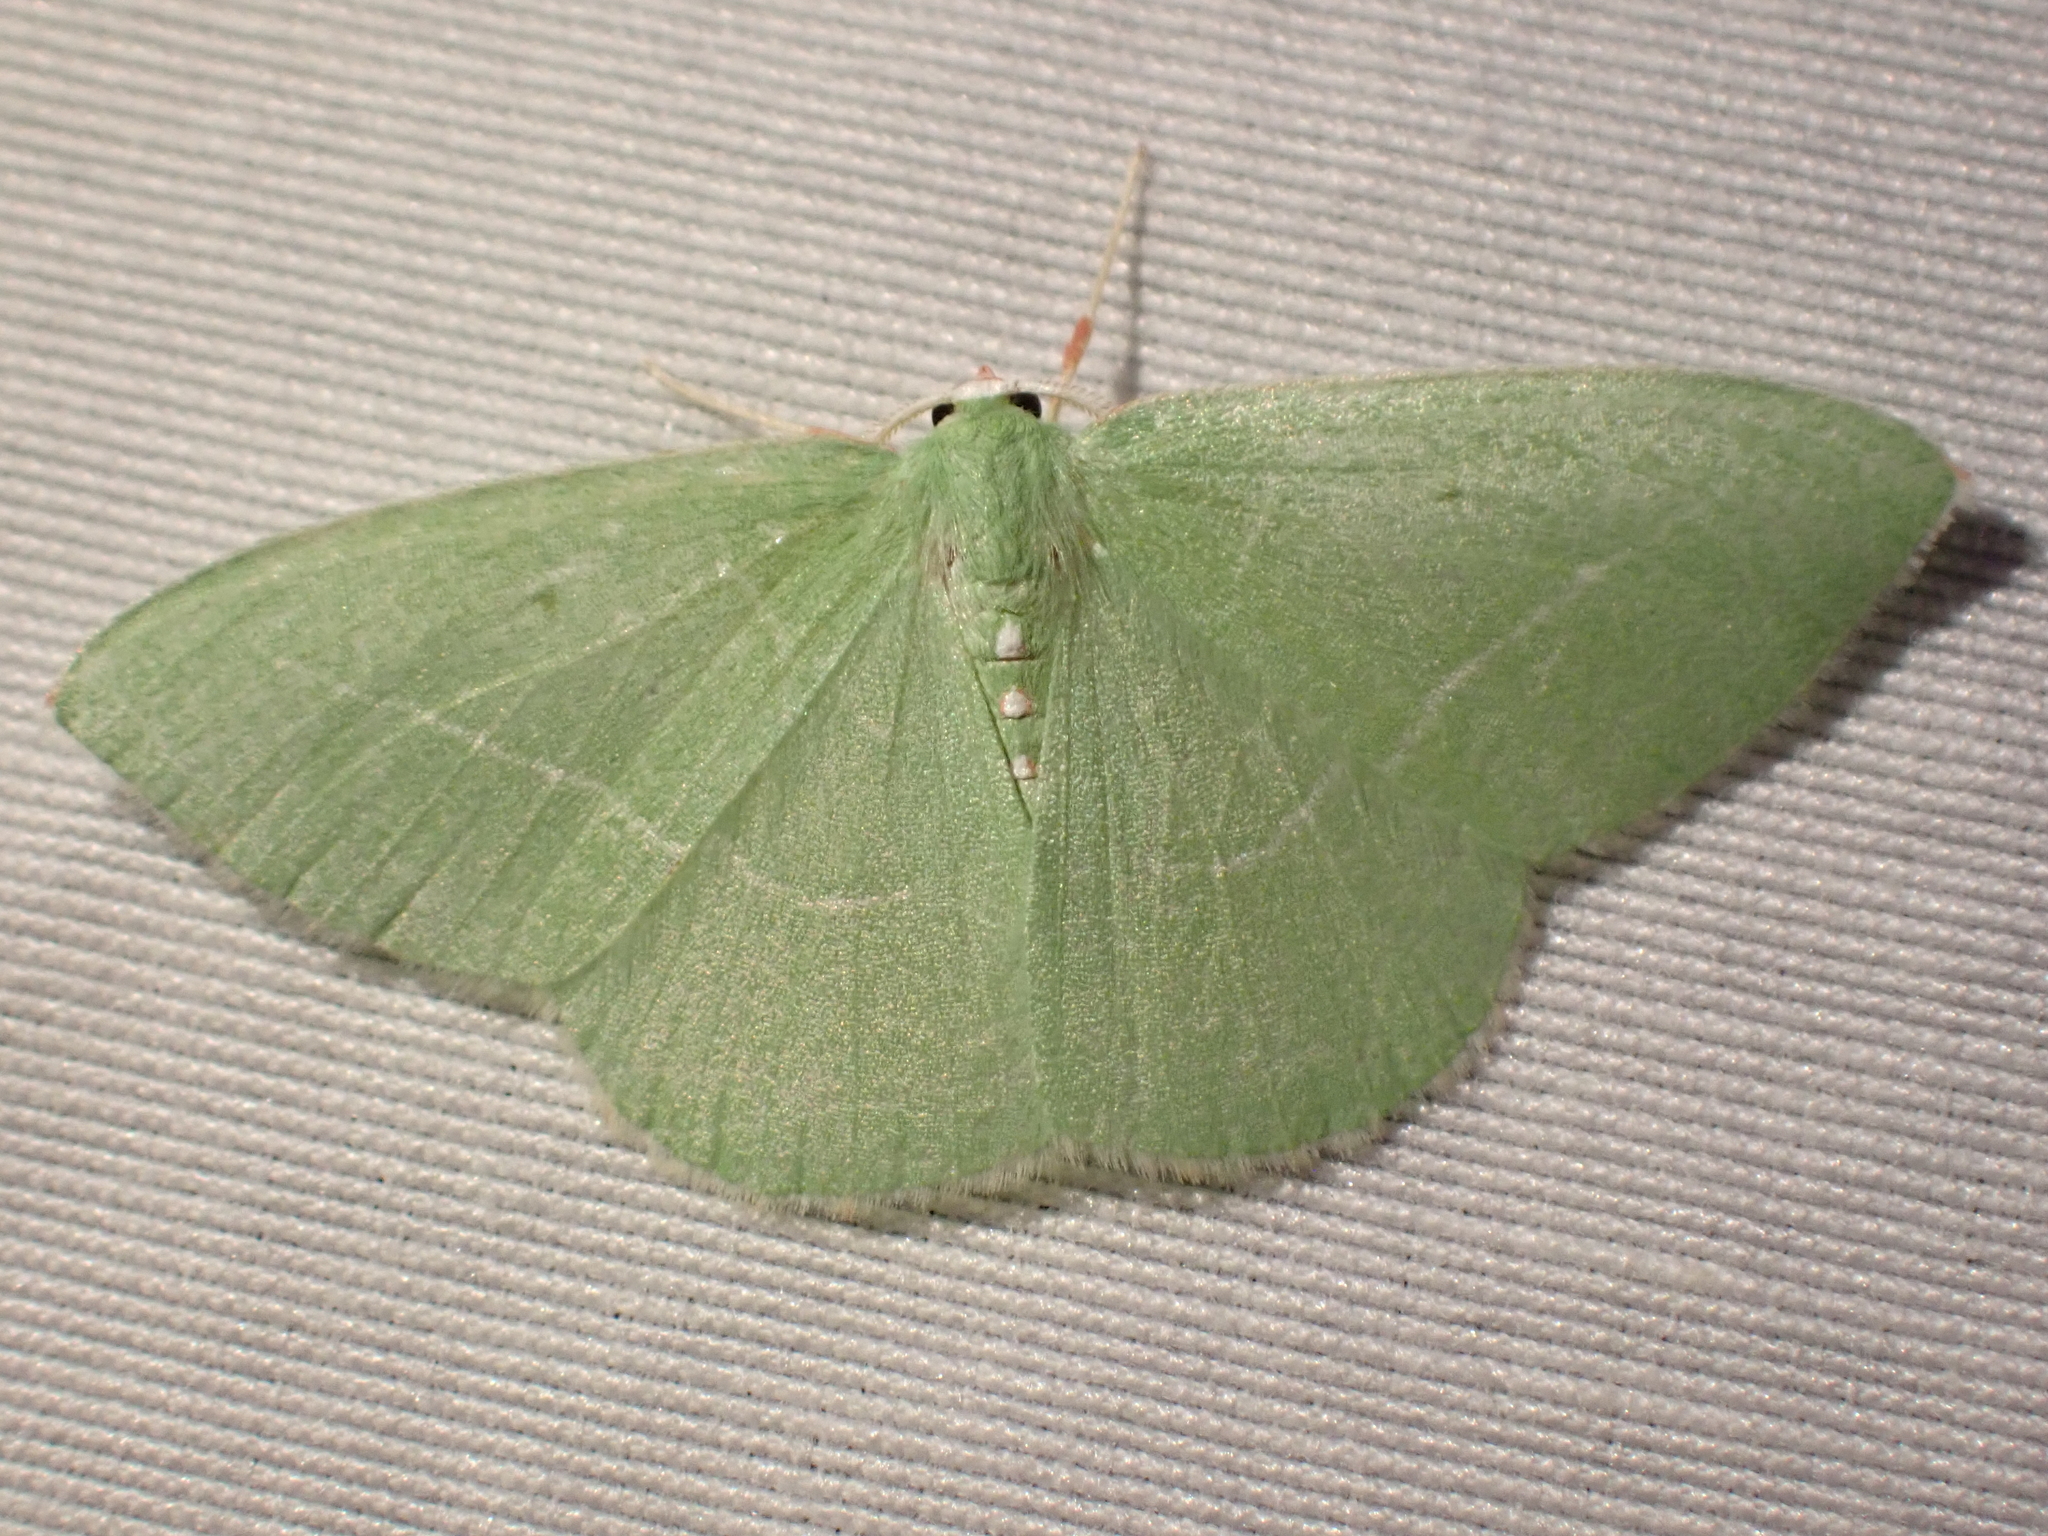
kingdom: Animalia
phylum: Arthropoda
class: Insecta
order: Lepidoptera
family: Geometridae
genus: Nemoria
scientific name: Nemoria unitaria
